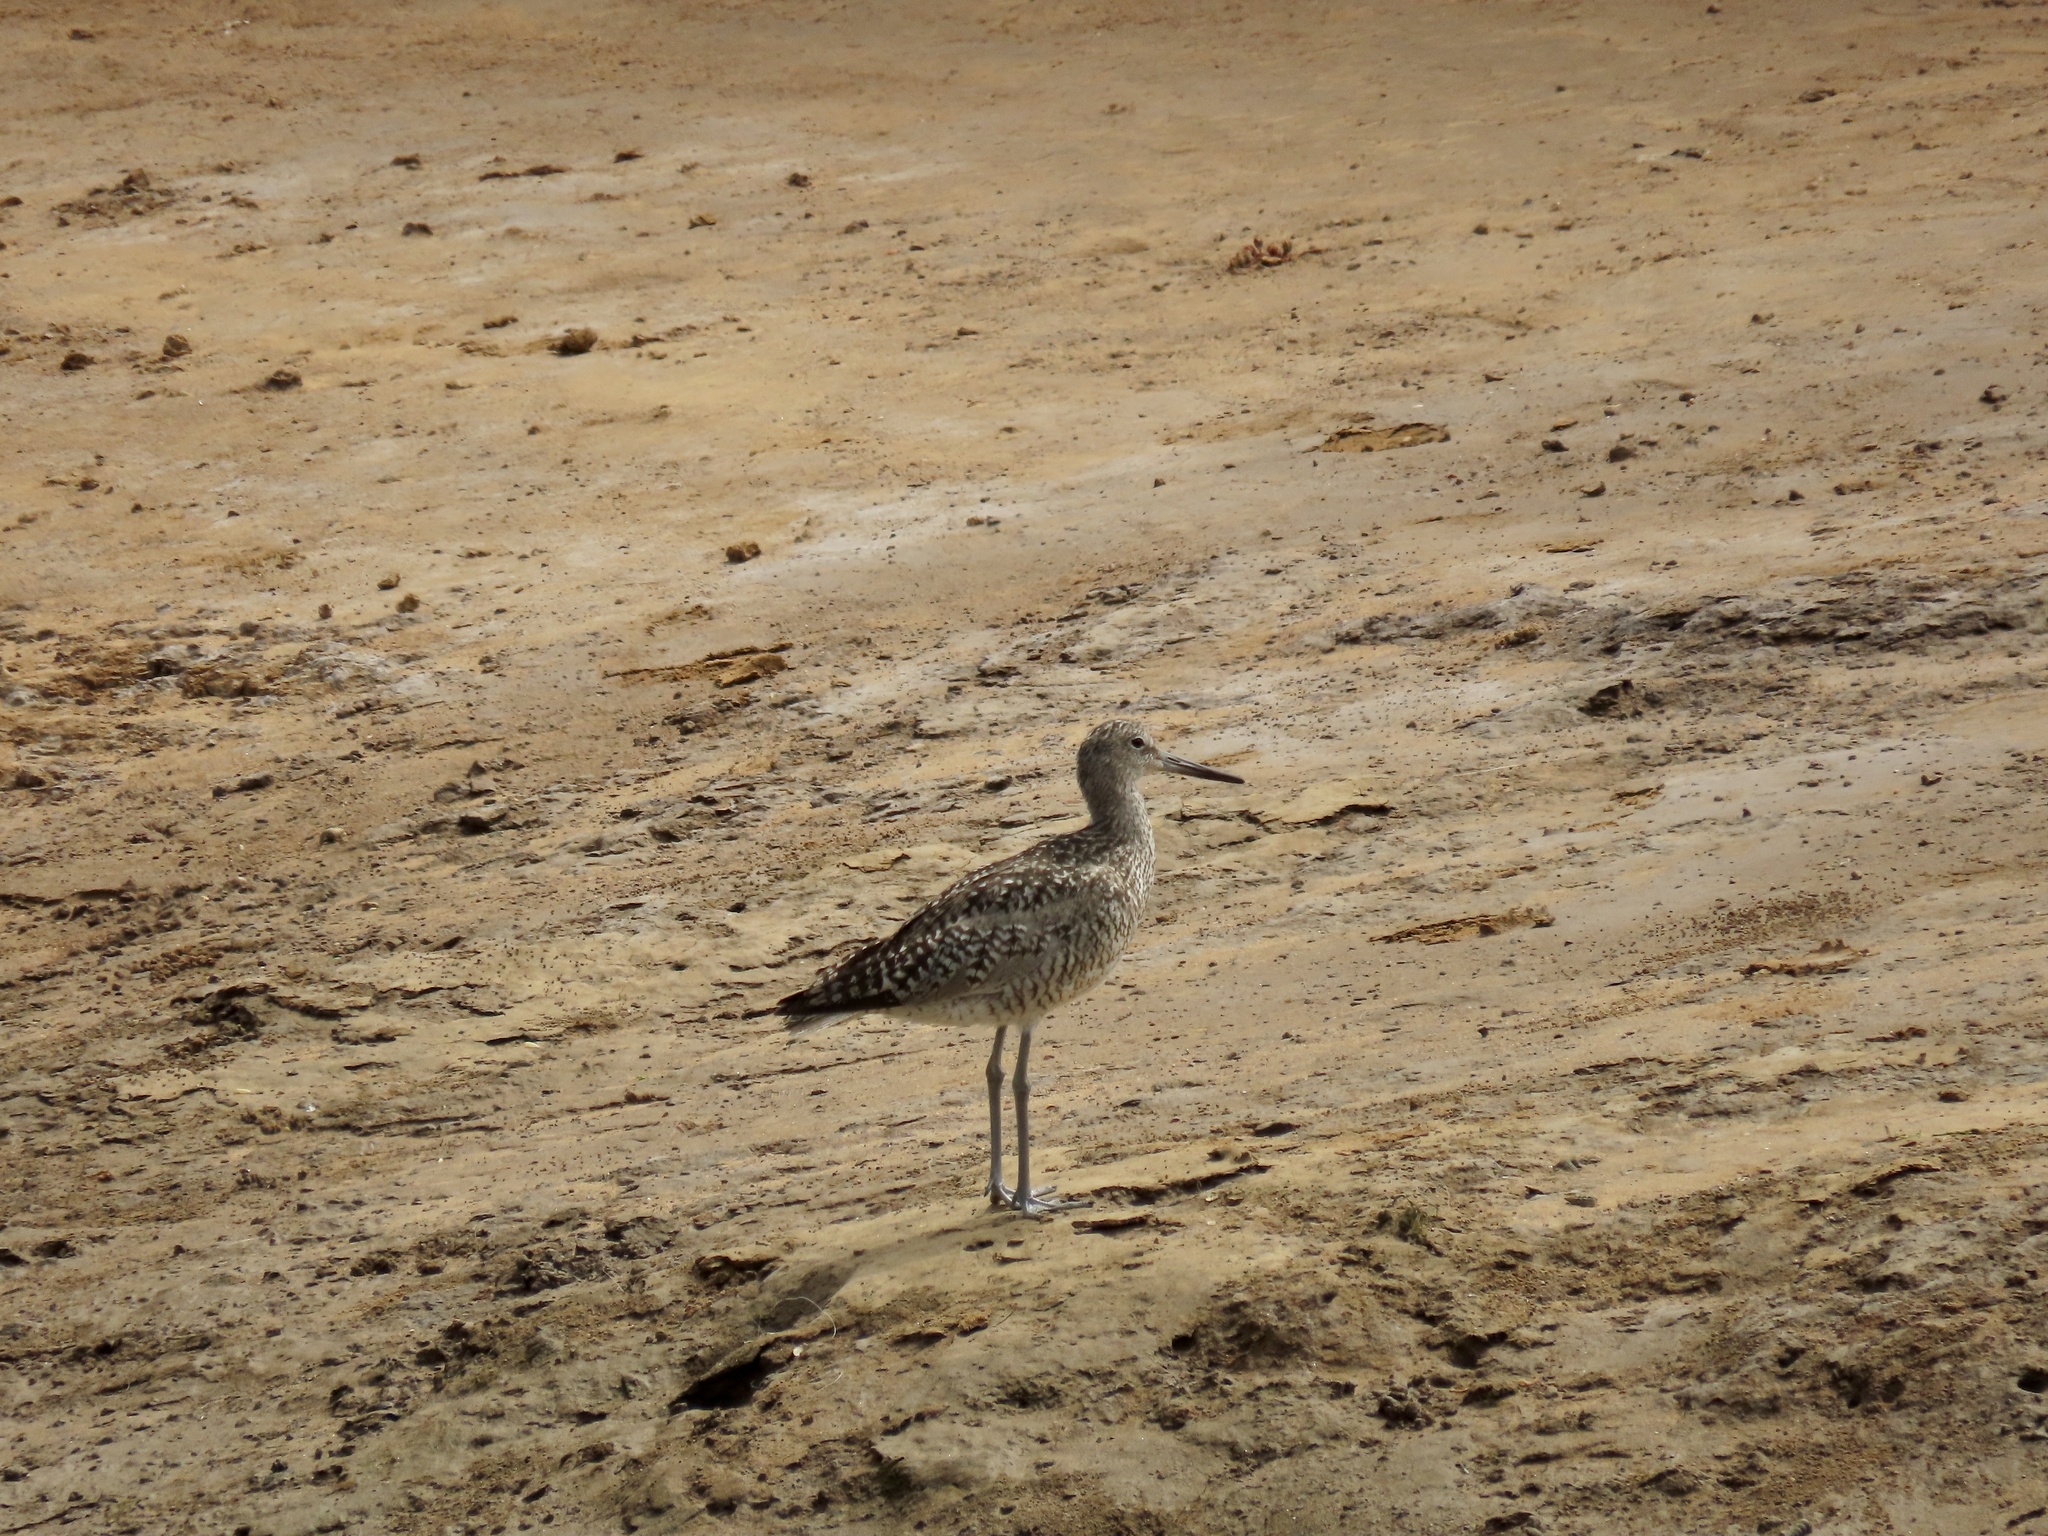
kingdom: Animalia
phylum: Chordata
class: Aves
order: Charadriiformes
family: Scolopacidae
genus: Tringa
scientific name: Tringa semipalmata
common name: Willet
